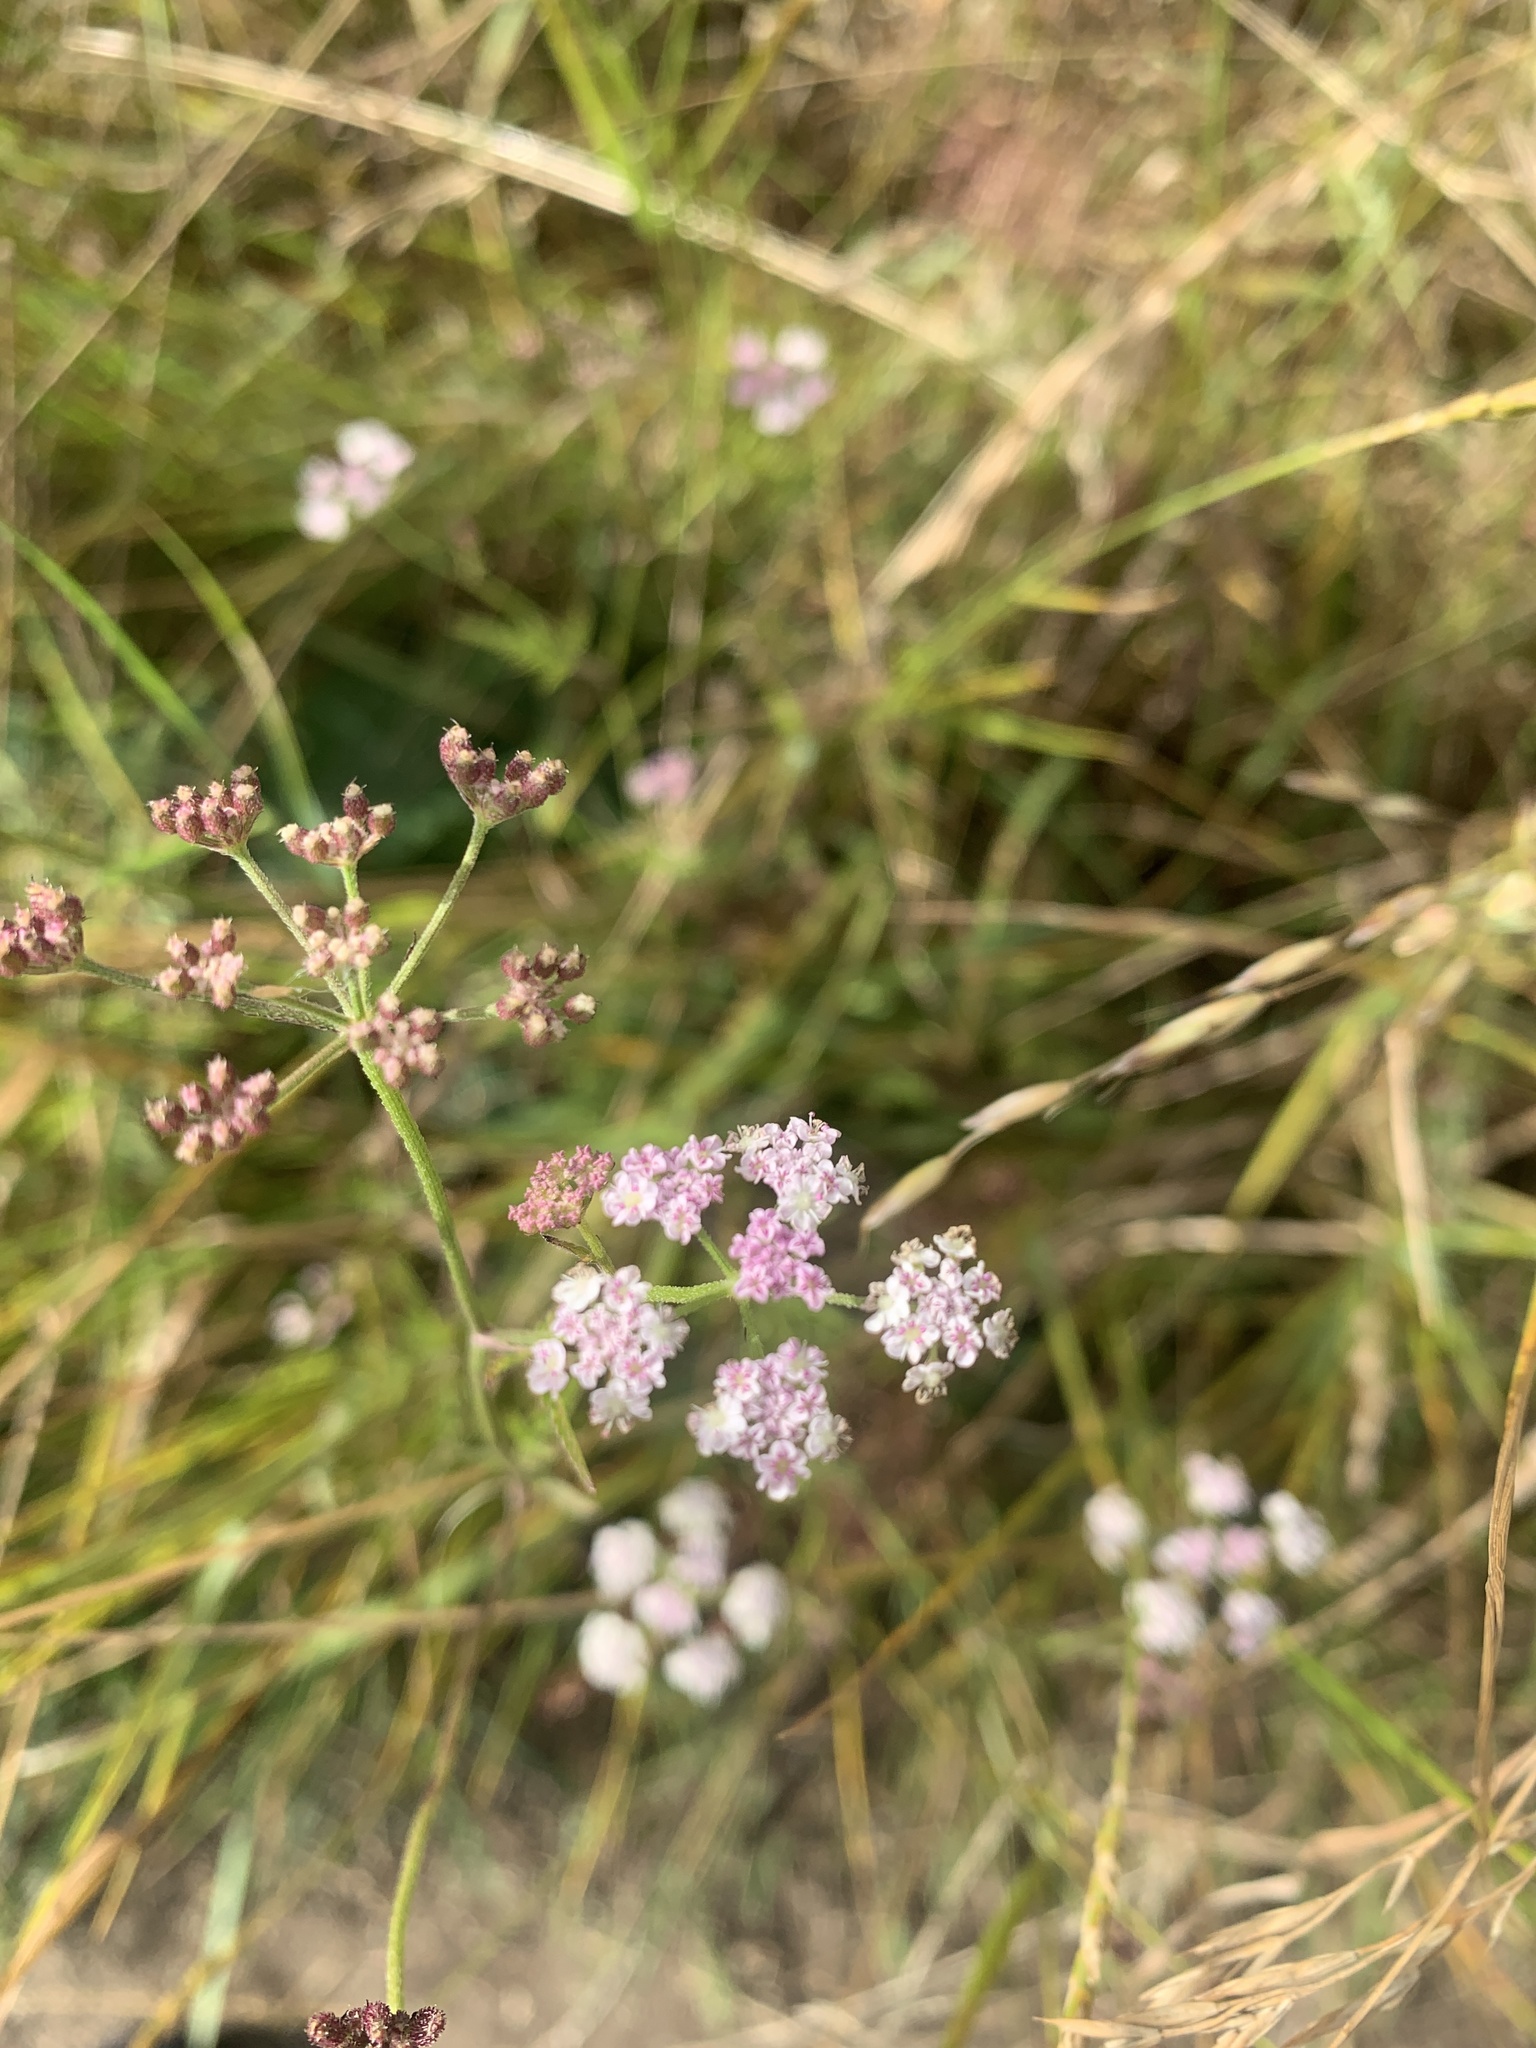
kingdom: Plantae
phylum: Tracheophyta
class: Magnoliopsida
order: Apiales
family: Apiaceae
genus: Torilis
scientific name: Torilis japonica
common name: Upright hedge-parsley
